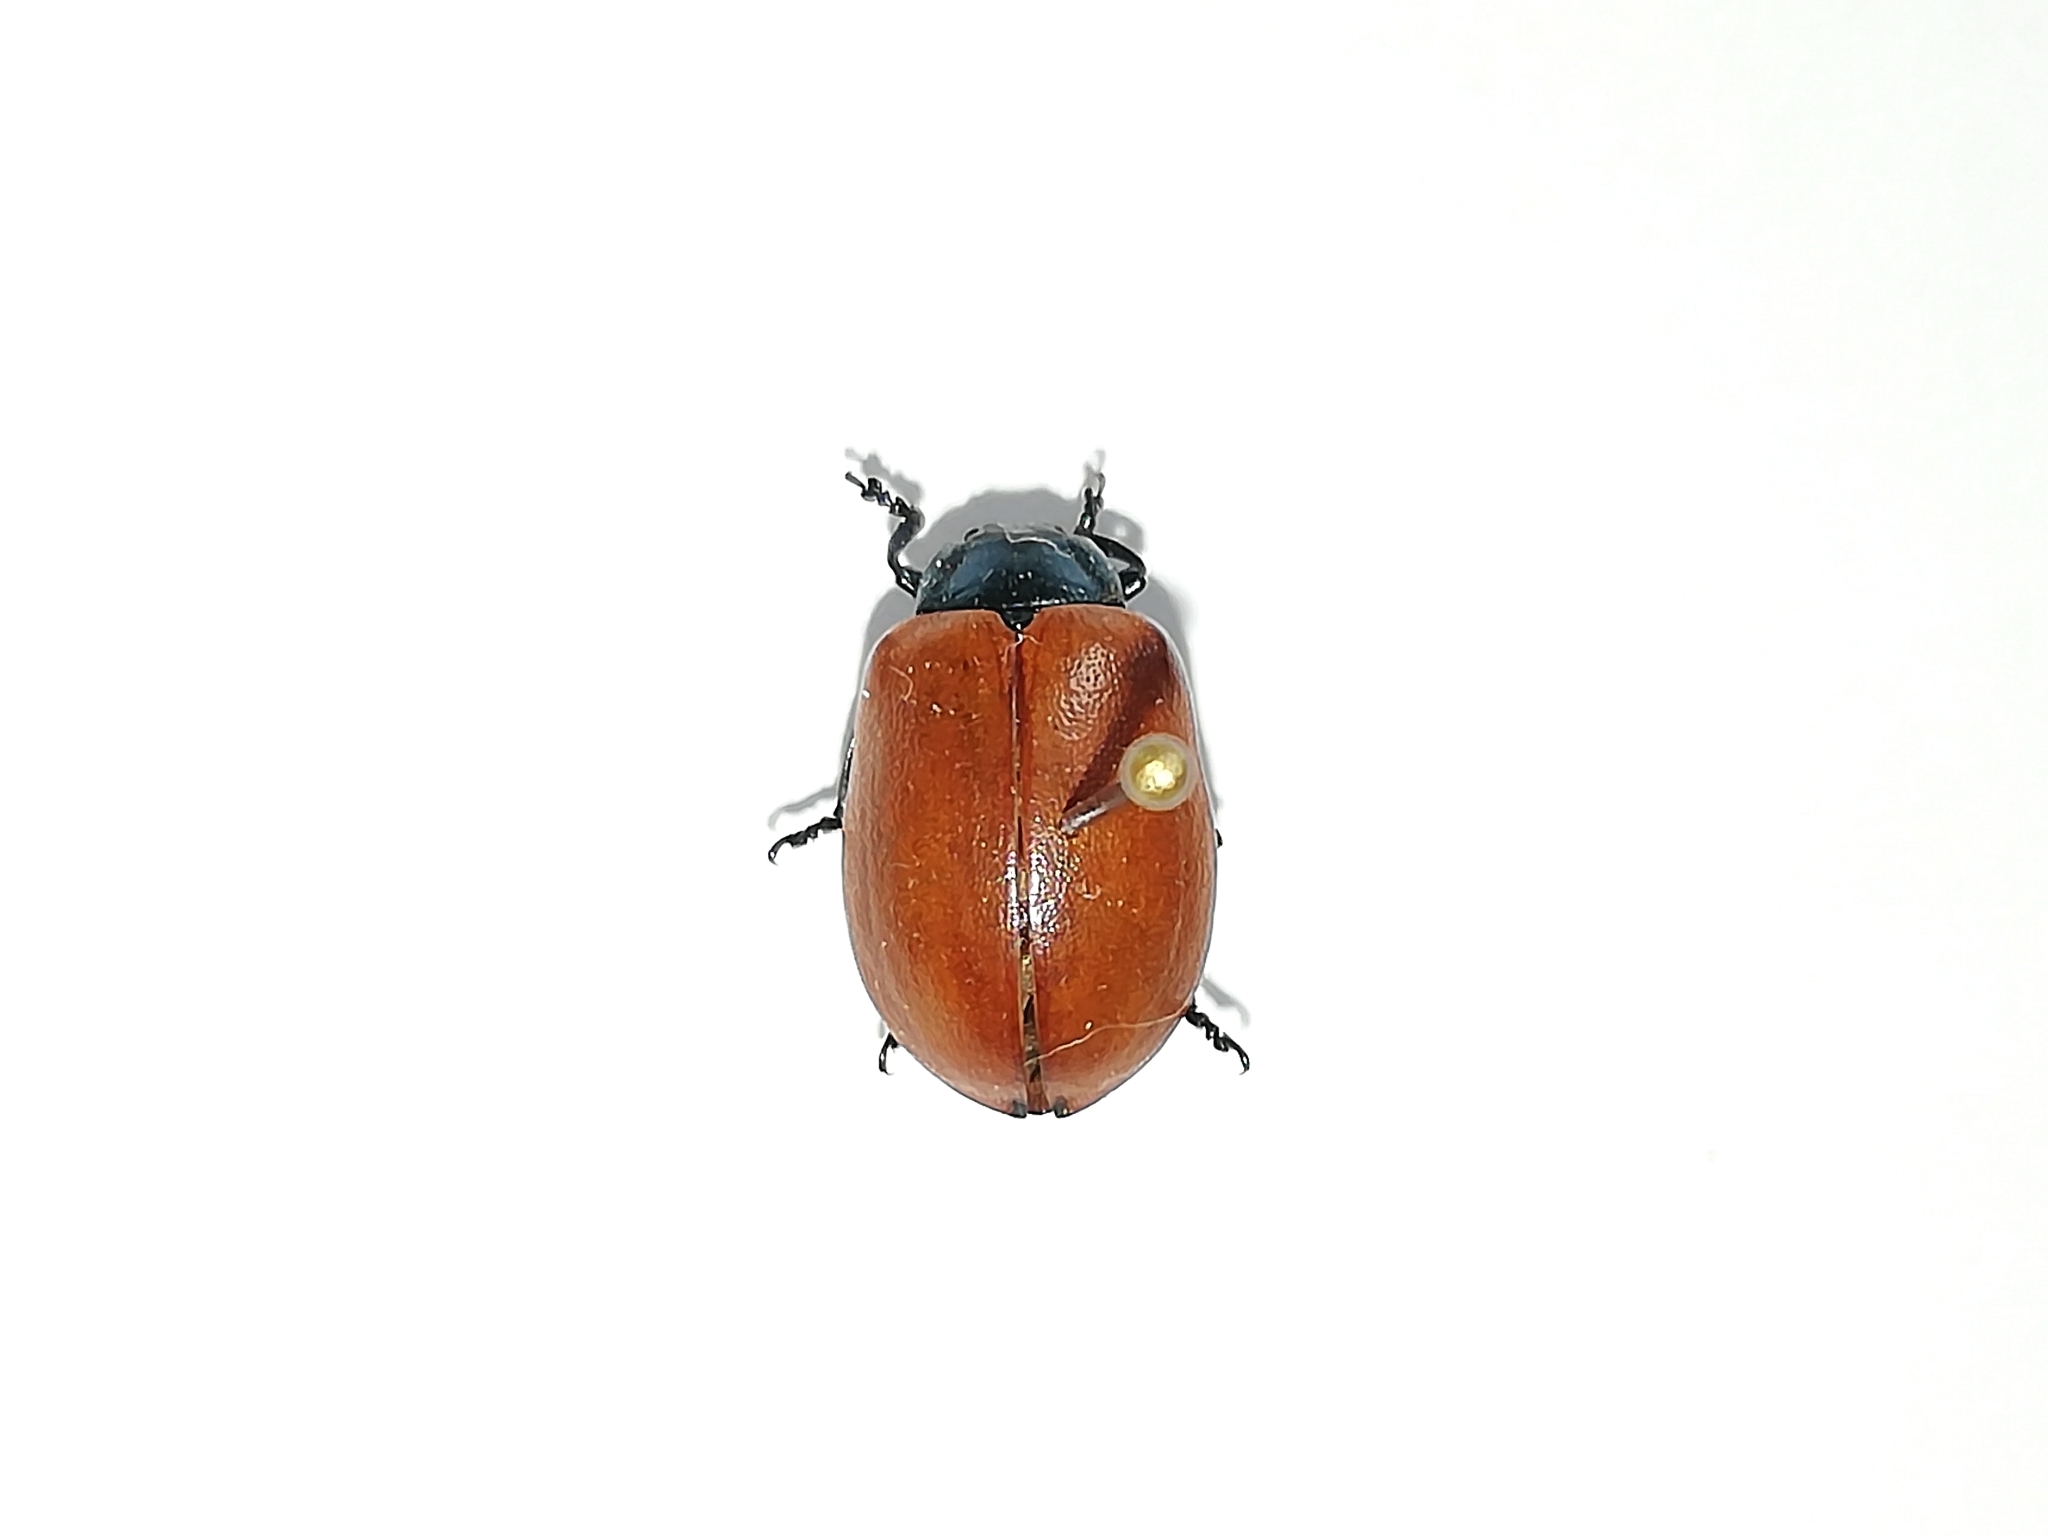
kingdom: Animalia
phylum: Arthropoda
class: Insecta
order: Coleoptera
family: Chrysomelidae
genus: Chrysomela
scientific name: Chrysomela populi
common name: Red poplar leaf beetle
